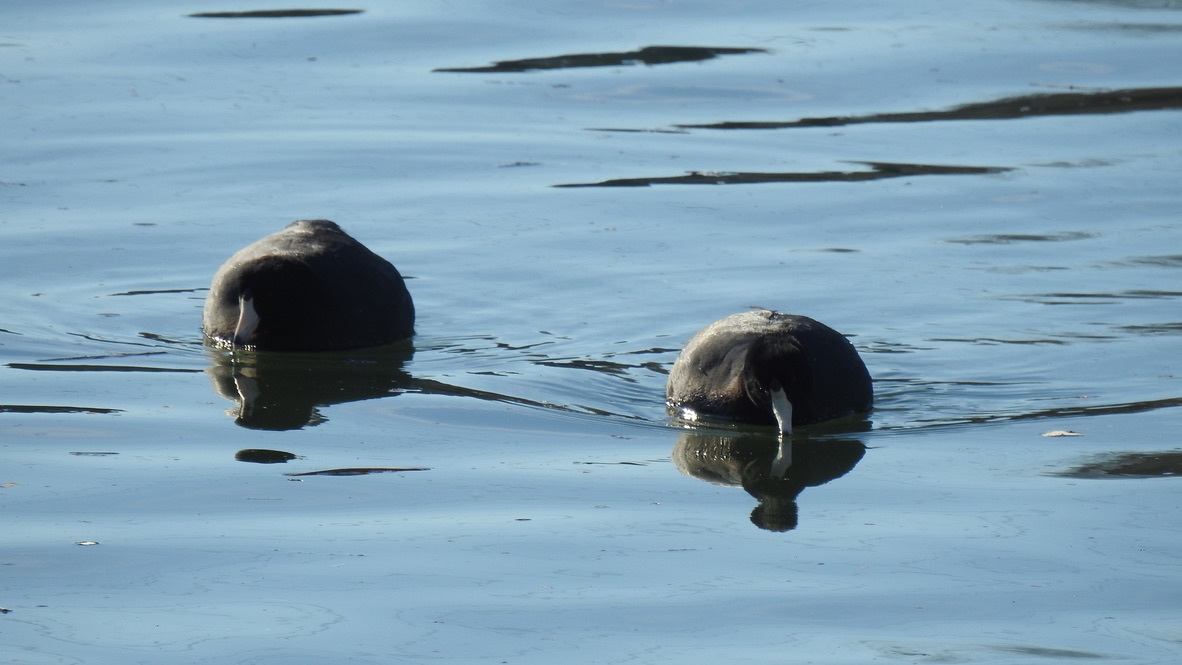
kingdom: Animalia
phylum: Chordata
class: Aves
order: Gruiformes
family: Rallidae
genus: Fulica
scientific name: Fulica americana
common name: American coot
